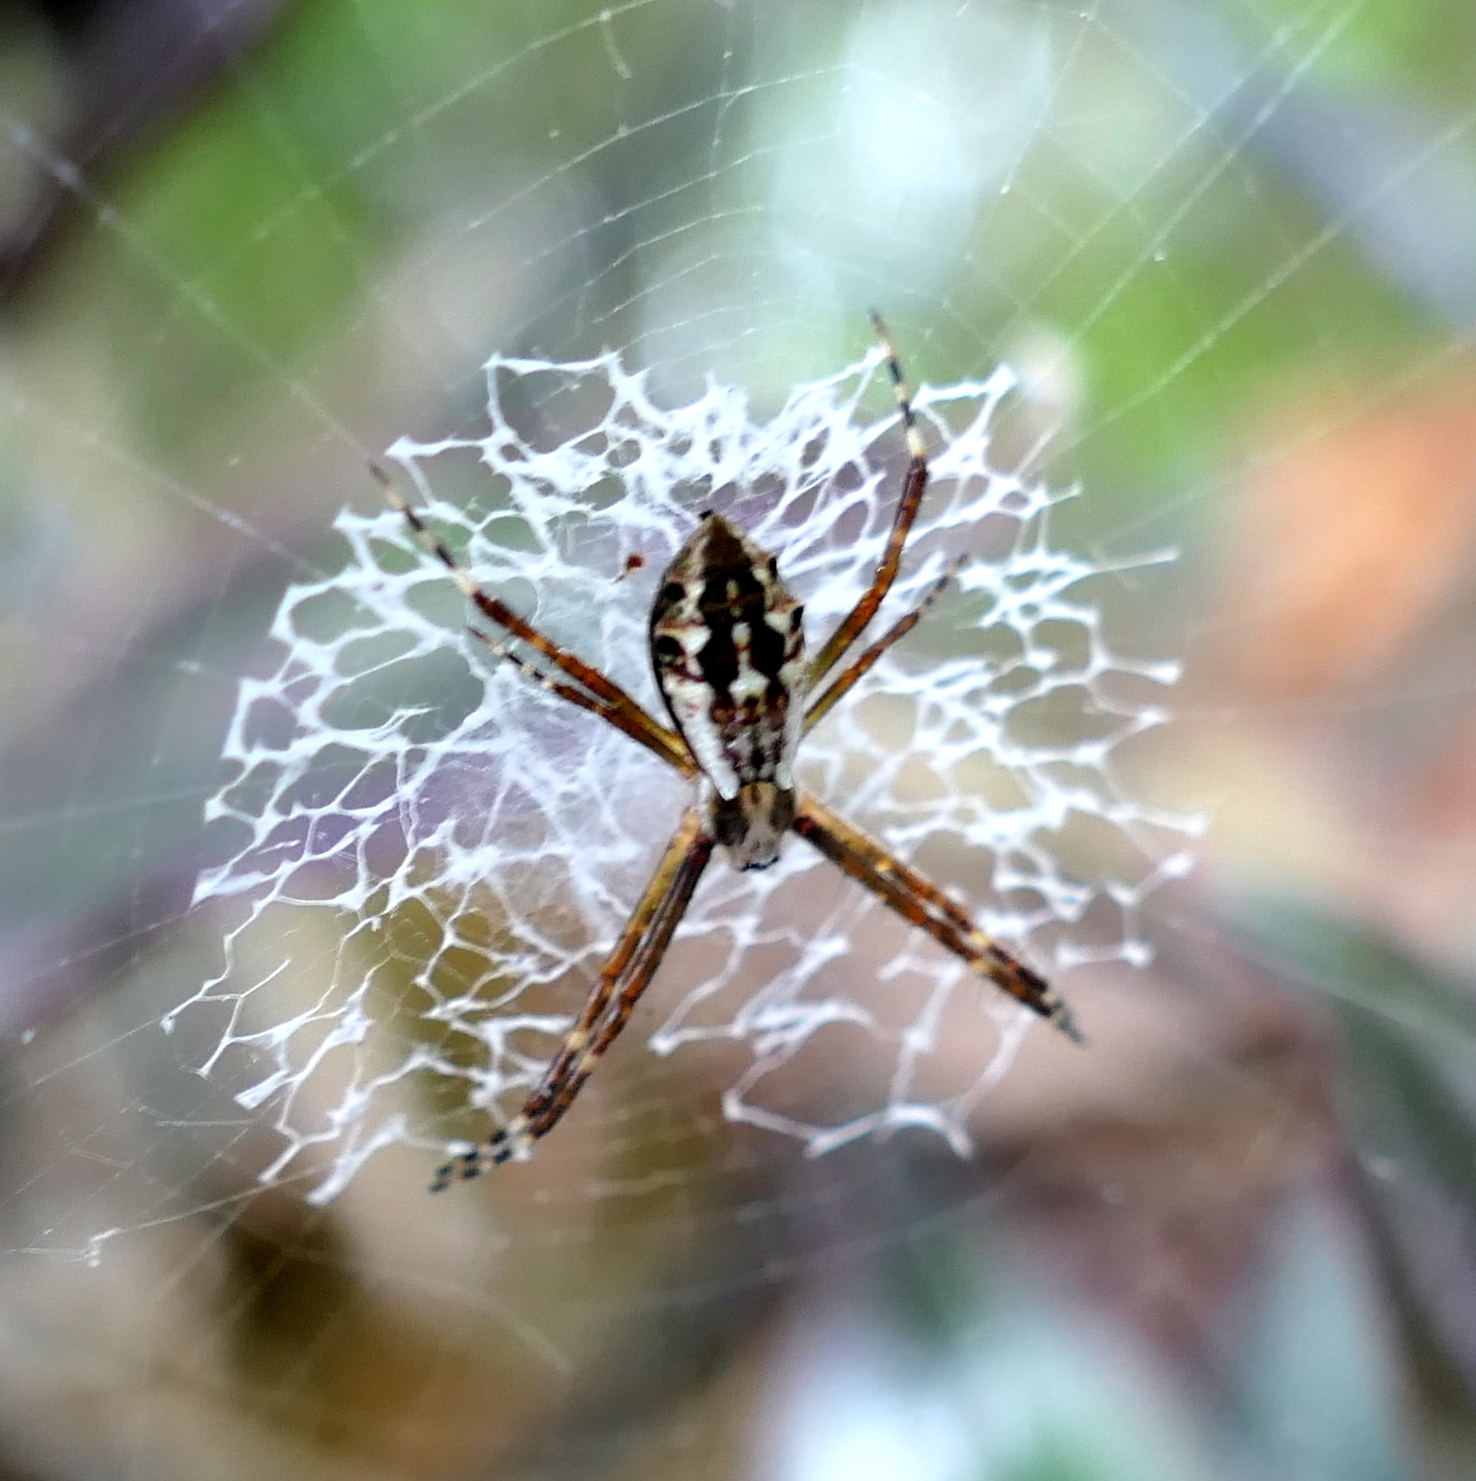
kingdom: Animalia
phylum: Arthropoda
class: Arachnida
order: Araneae
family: Araneidae
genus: Argiope
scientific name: Argiope argentata
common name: Orb weavers
